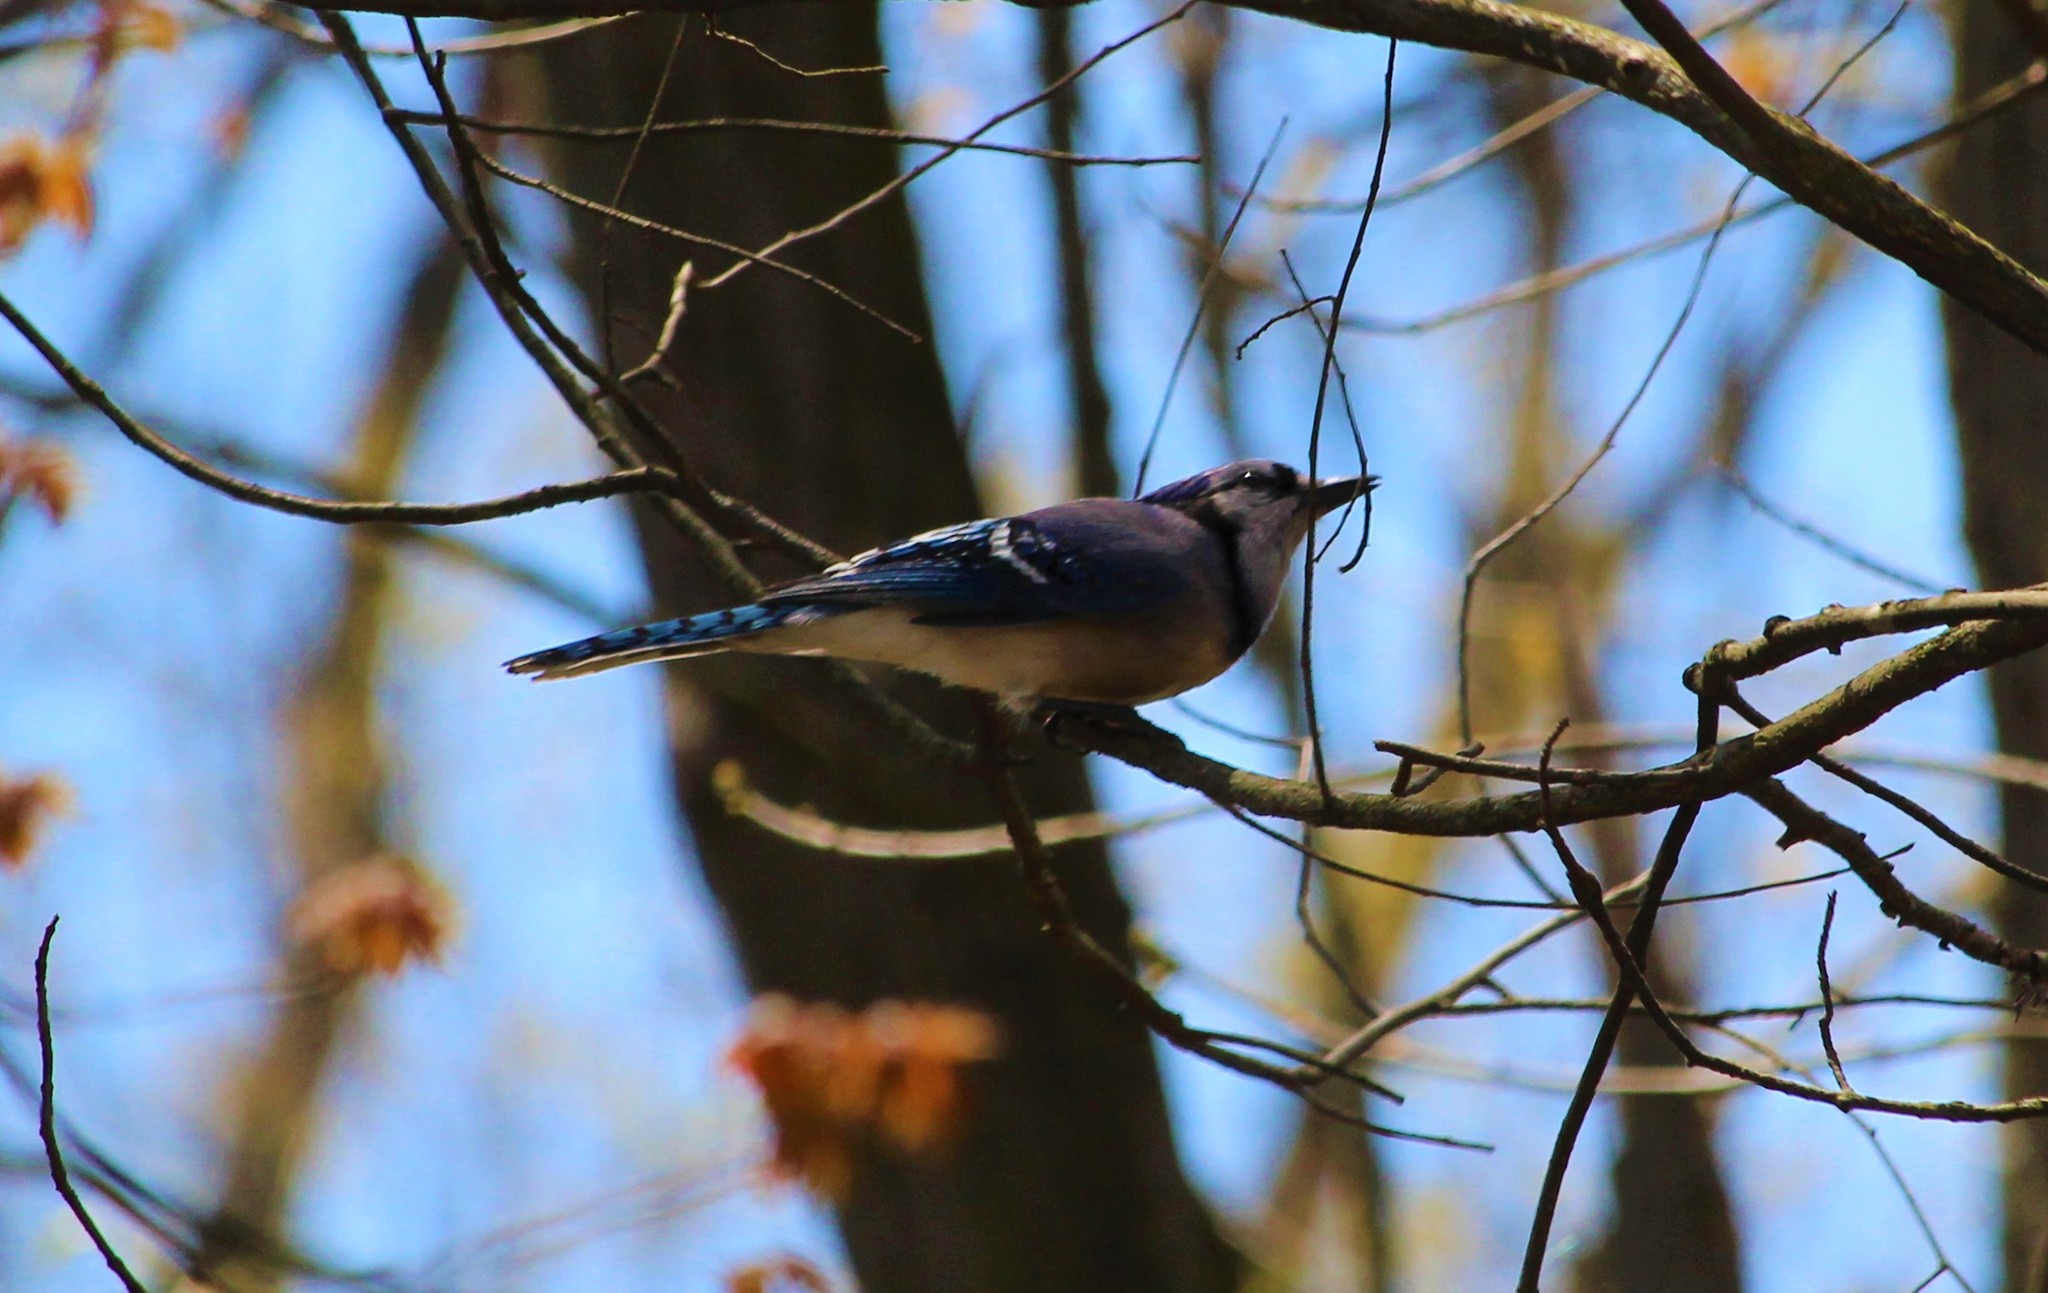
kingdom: Animalia
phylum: Chordata
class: Aves
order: Passeriformes
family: Corvidae
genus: Cyanocitta
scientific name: Cyanocitta cristata
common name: Blue jay
